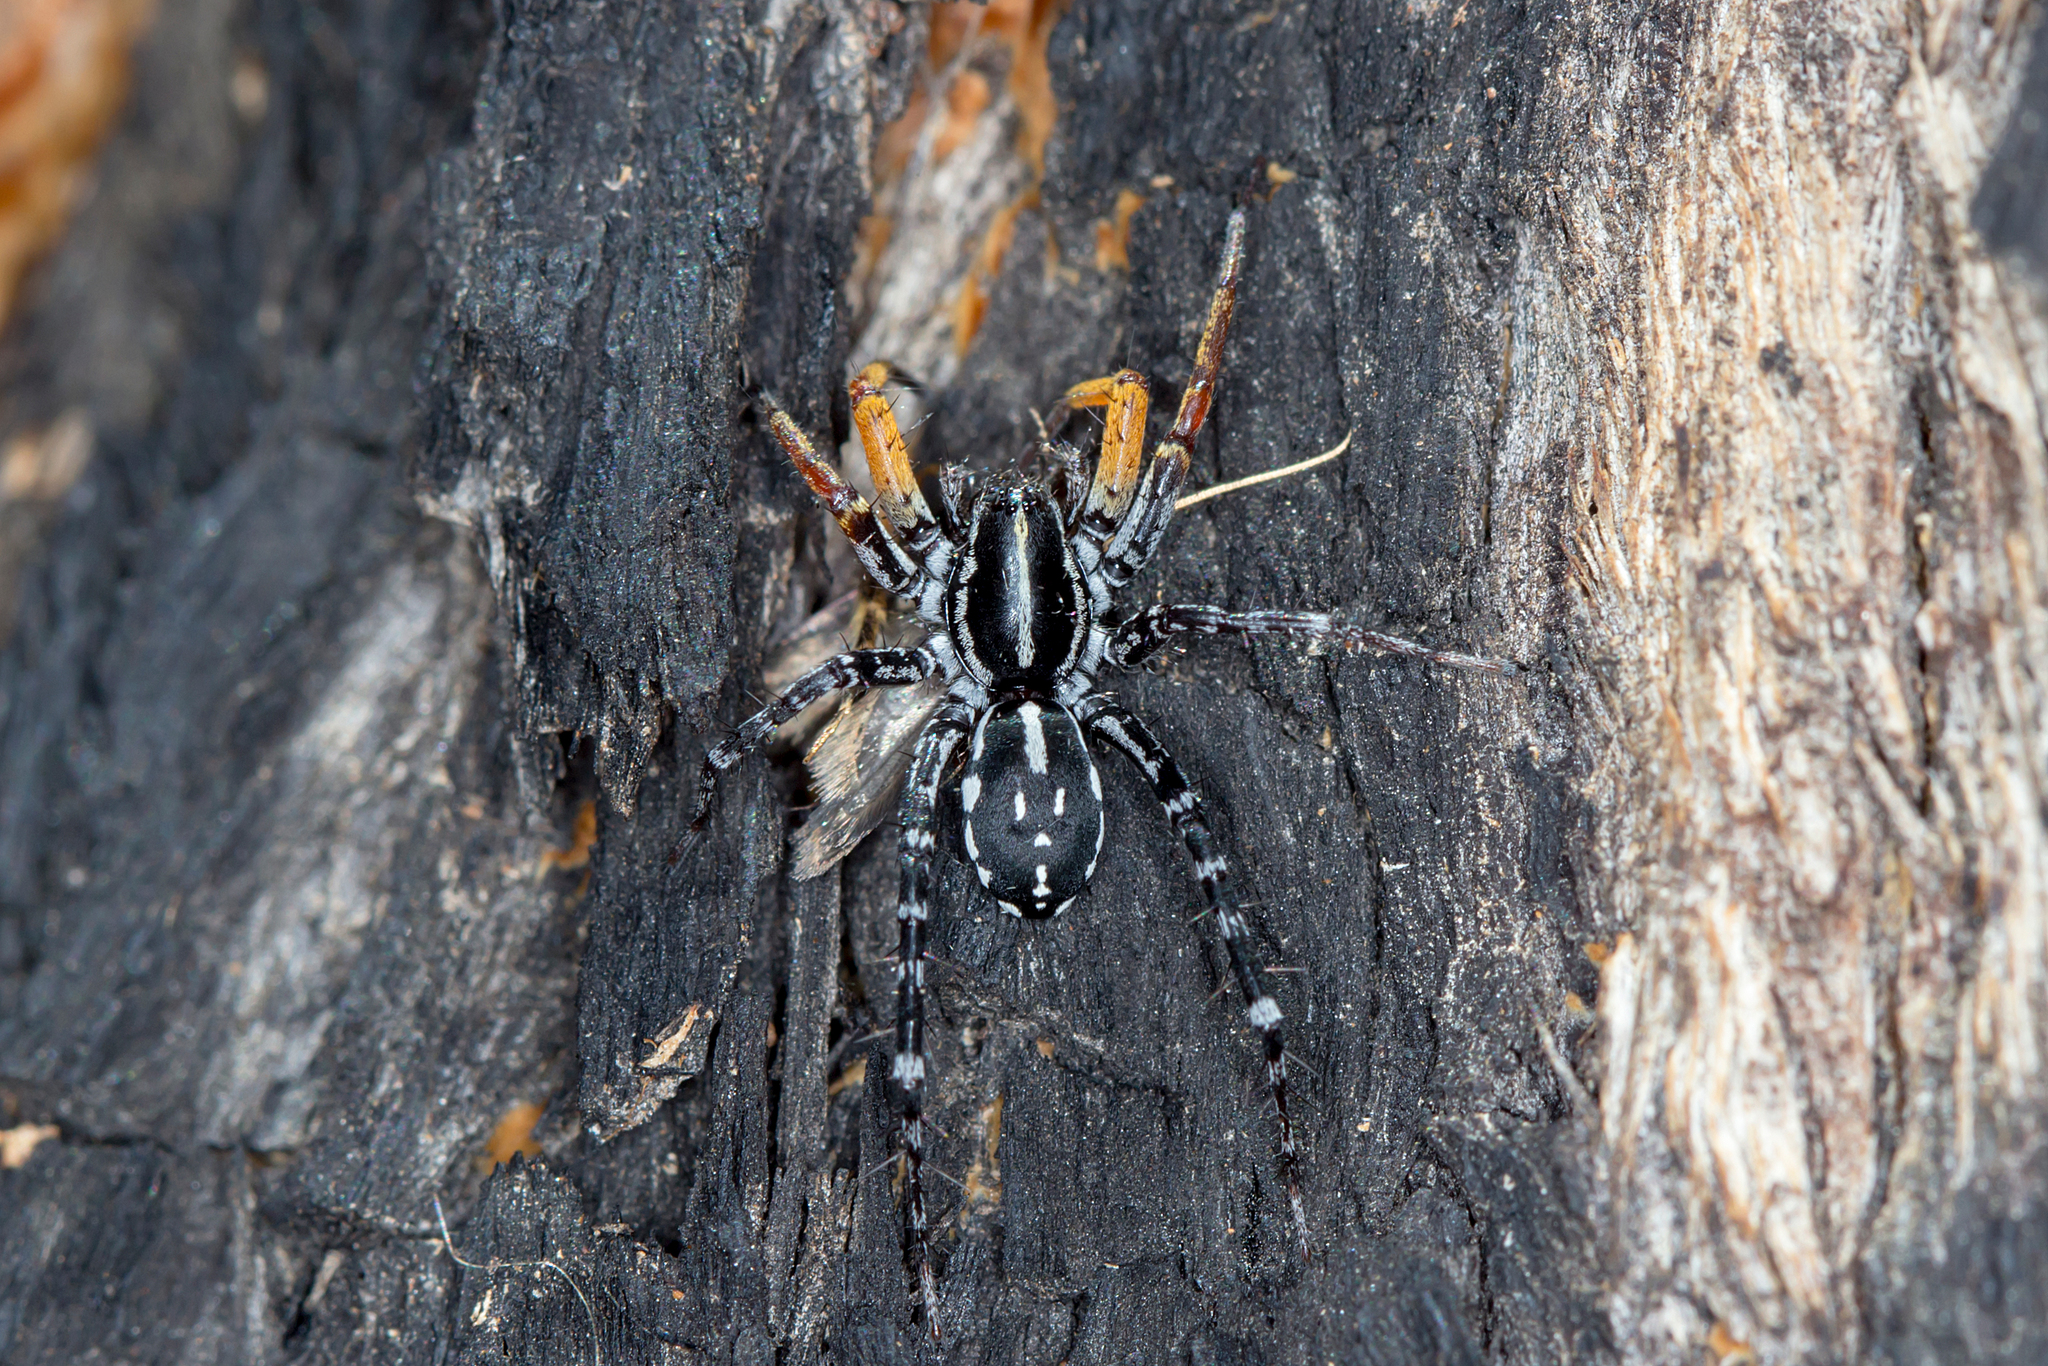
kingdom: Animalia
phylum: Arthropoda
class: Arachnida
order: Araneae
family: Corinnidae
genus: Nyssus
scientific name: Nyssus coloripes
